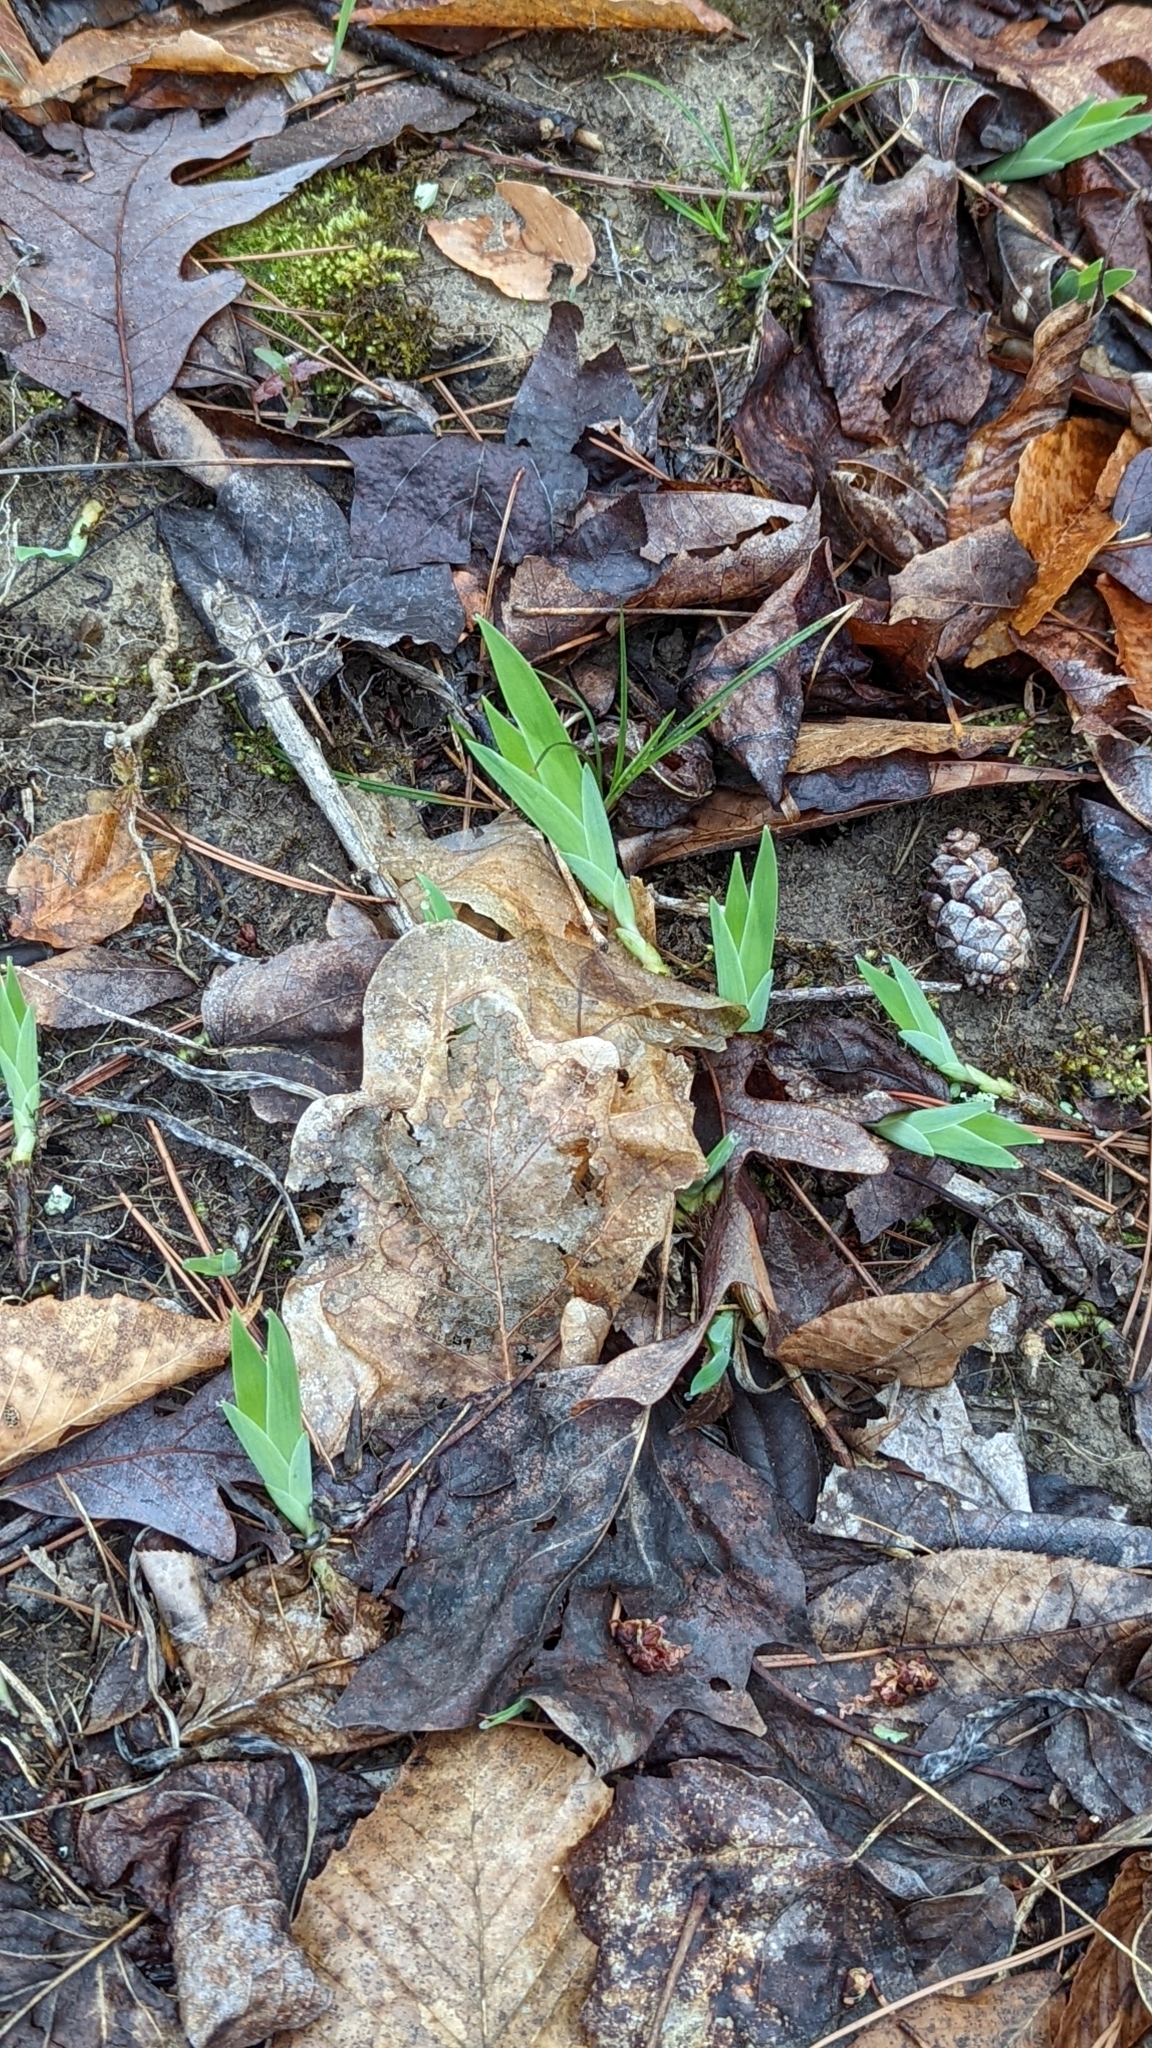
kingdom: Plantae
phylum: Tracheophyta
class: Liliopsida
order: Asparagales
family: Iridaceae
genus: Iris
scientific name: Iris cristata
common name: Crested iris
